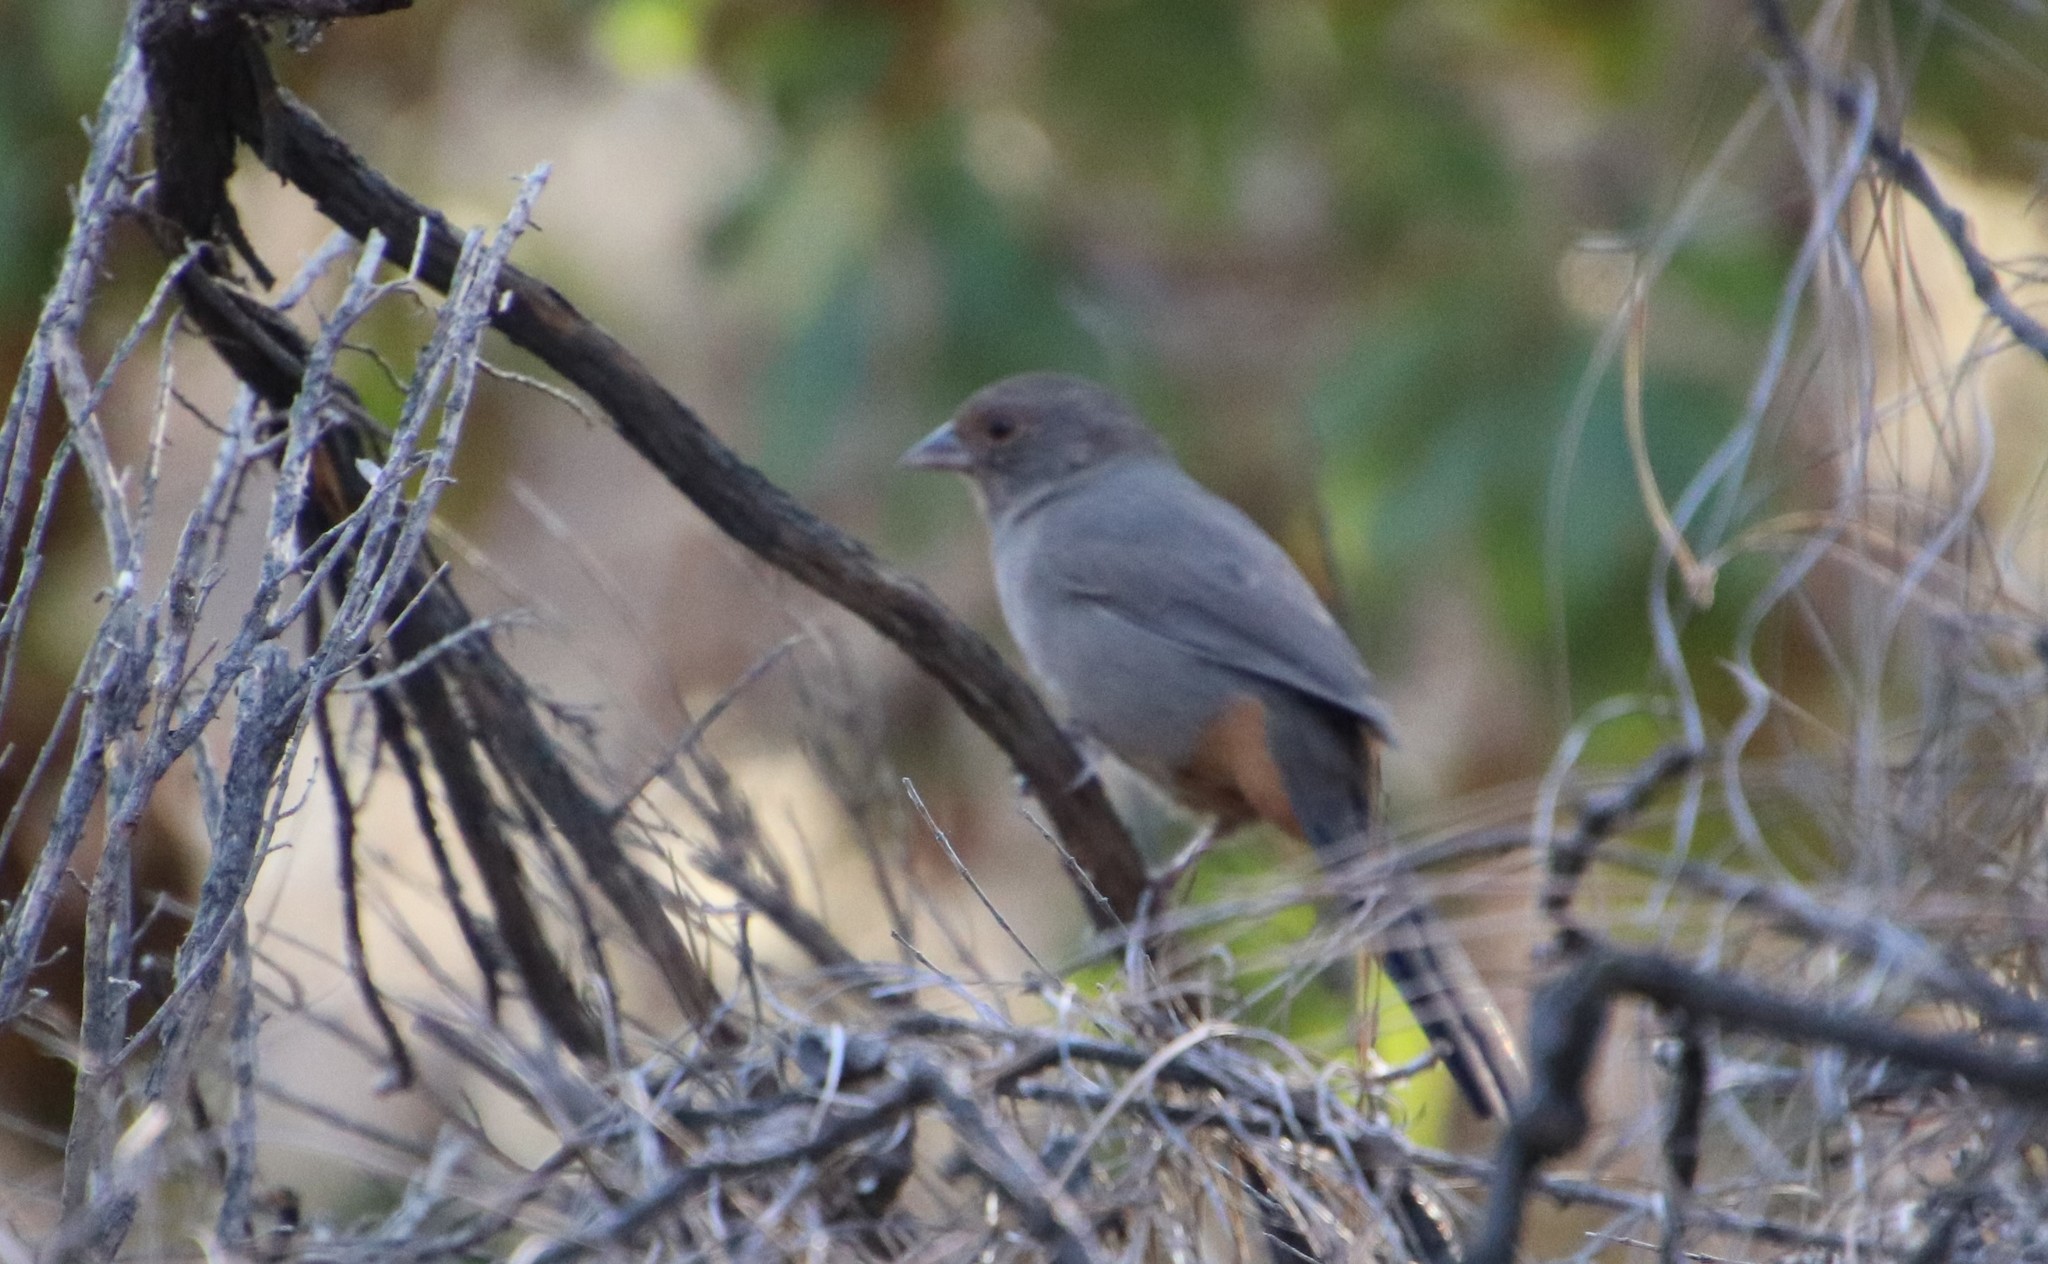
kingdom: Animalia
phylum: Chordata
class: Aves
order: Passeriformes
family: Passerellidae
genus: Melozone
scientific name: Melozone crissalis
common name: California towhee
